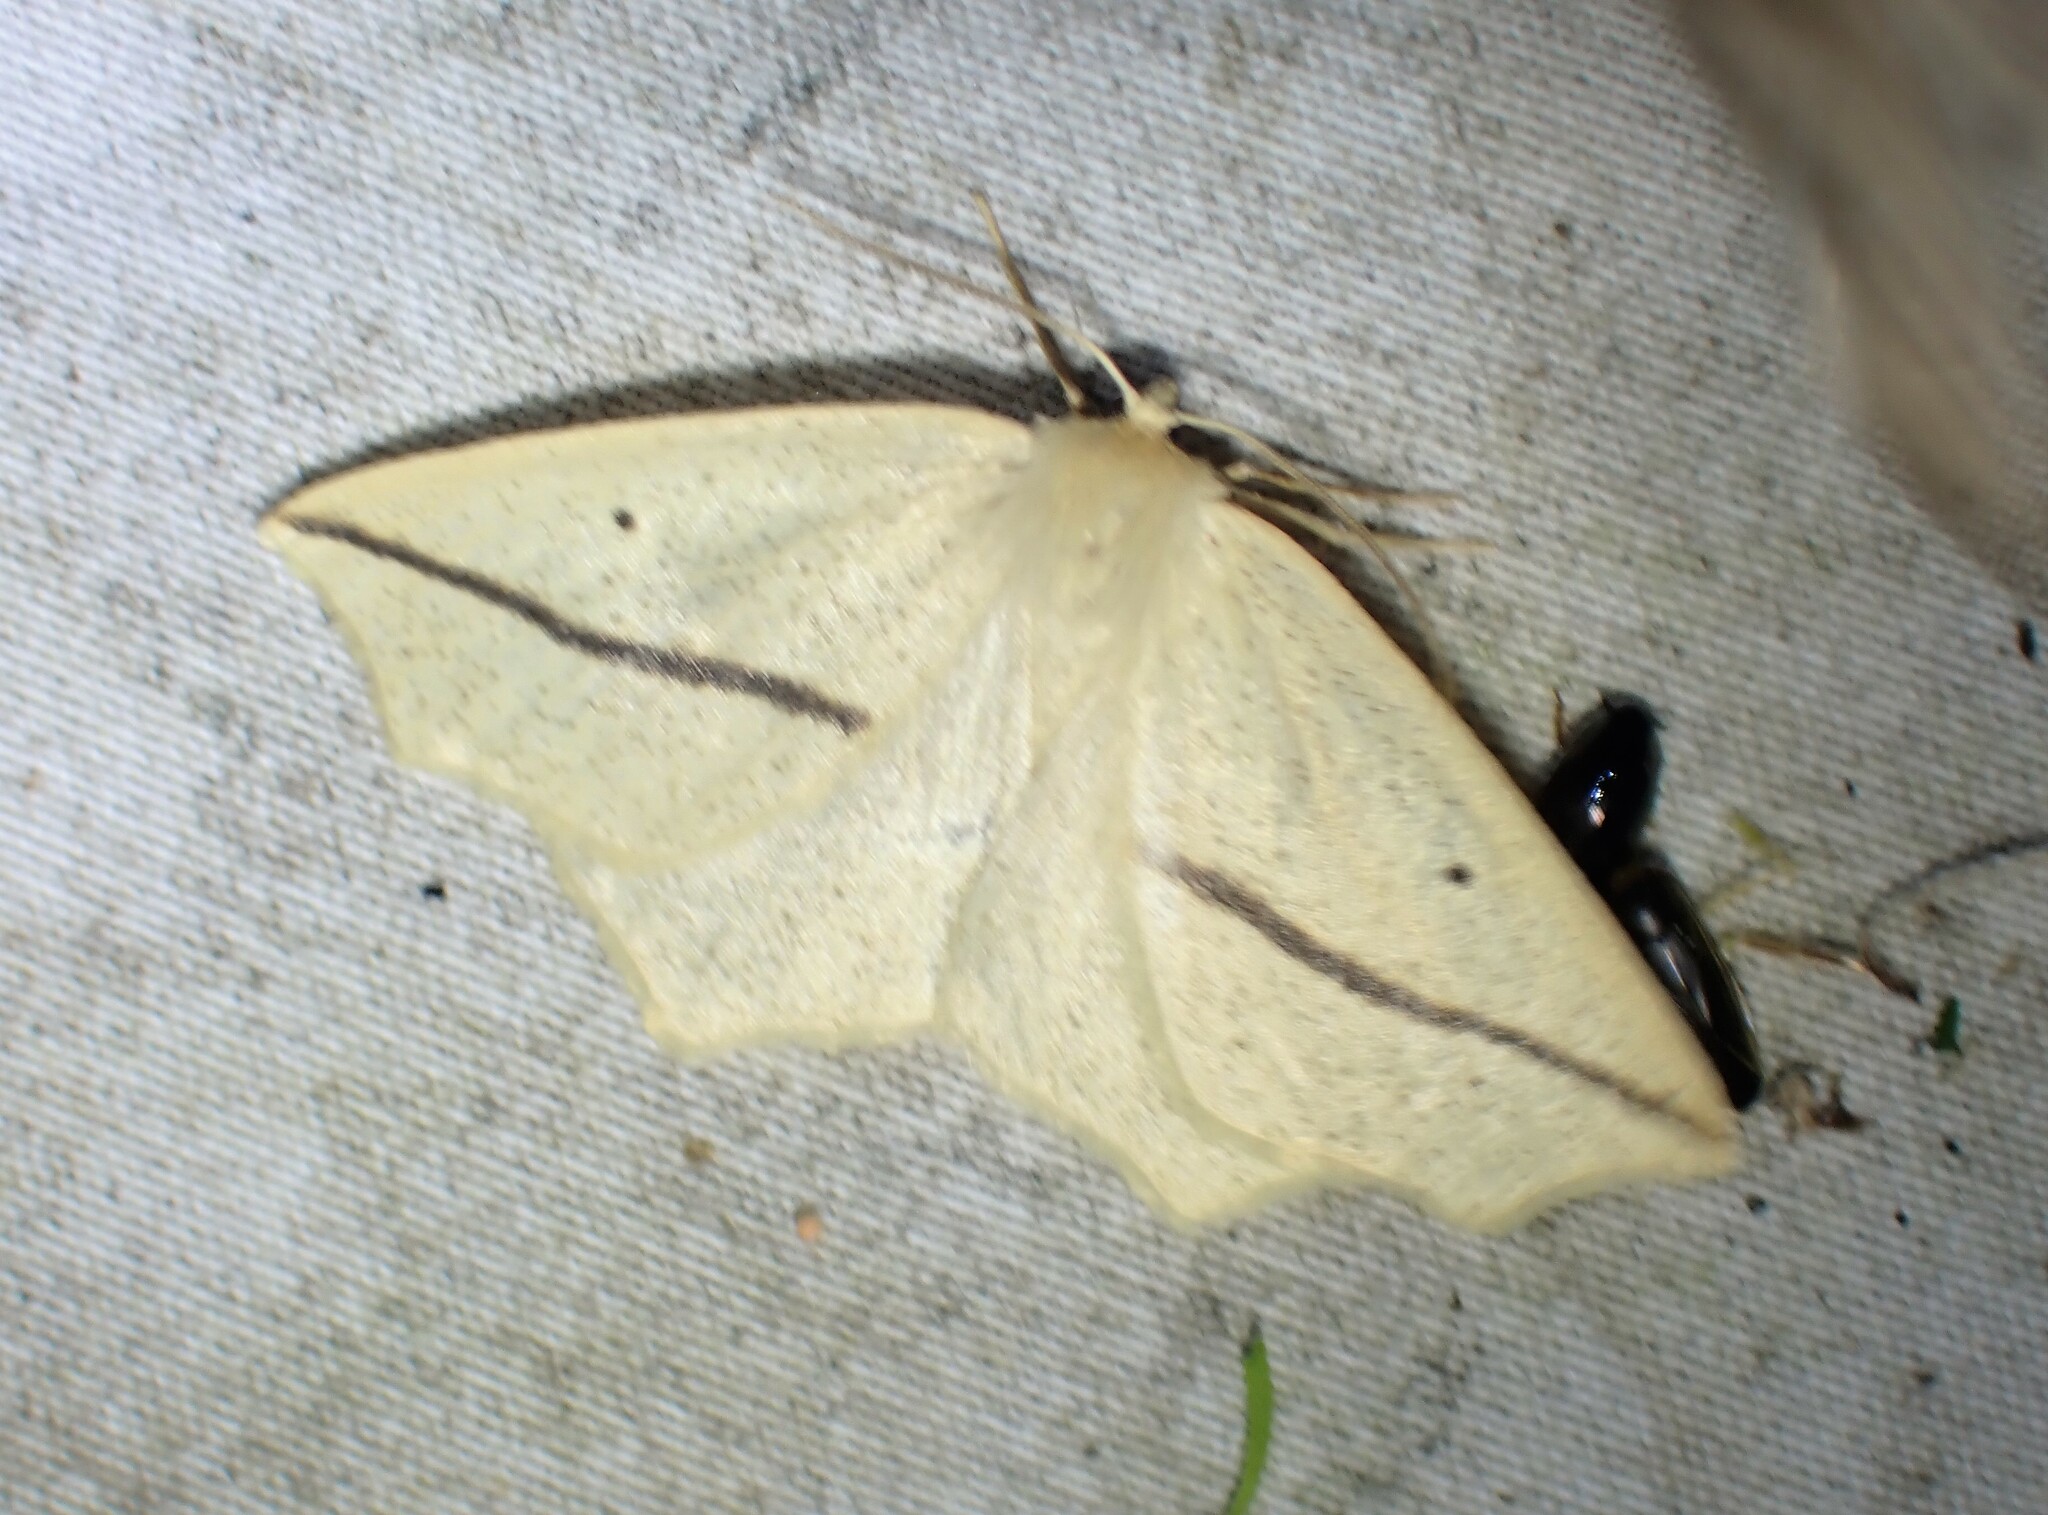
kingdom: Animalia
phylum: Arthropoda
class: Insecta
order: Lepidoptera
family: Geometridae
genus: Tetracis
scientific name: Tetracis crocallata
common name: Yellow slant-line
